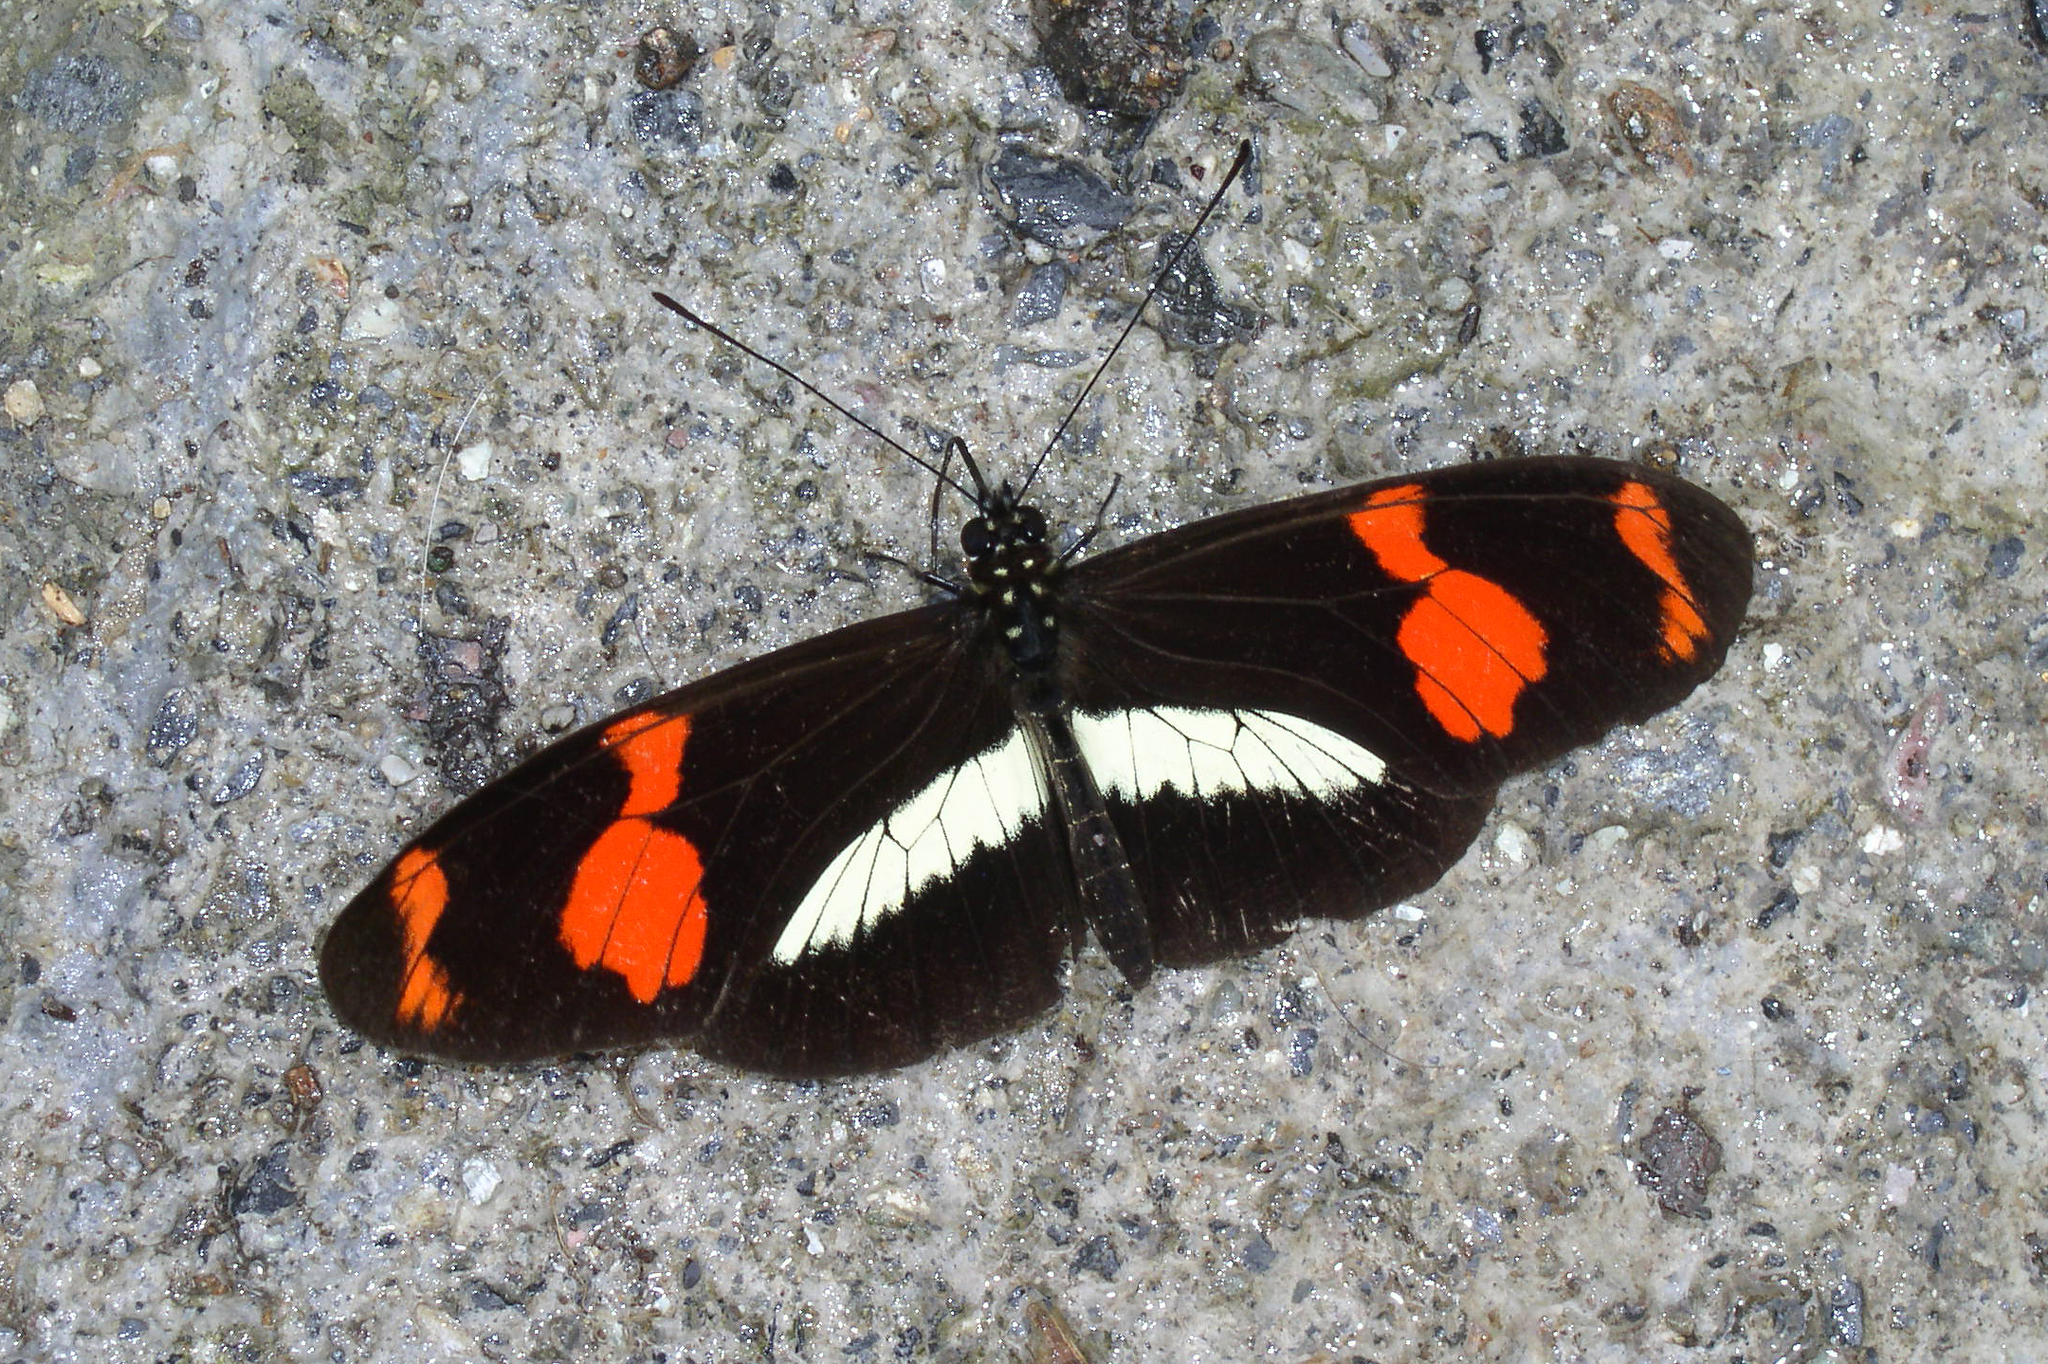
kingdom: Animalia
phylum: Arthropoda
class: Insecta
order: Lepidoptera
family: Nymphalidae
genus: Heliconius
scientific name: Heliconius telesiphe
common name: Telesiphe longwing
